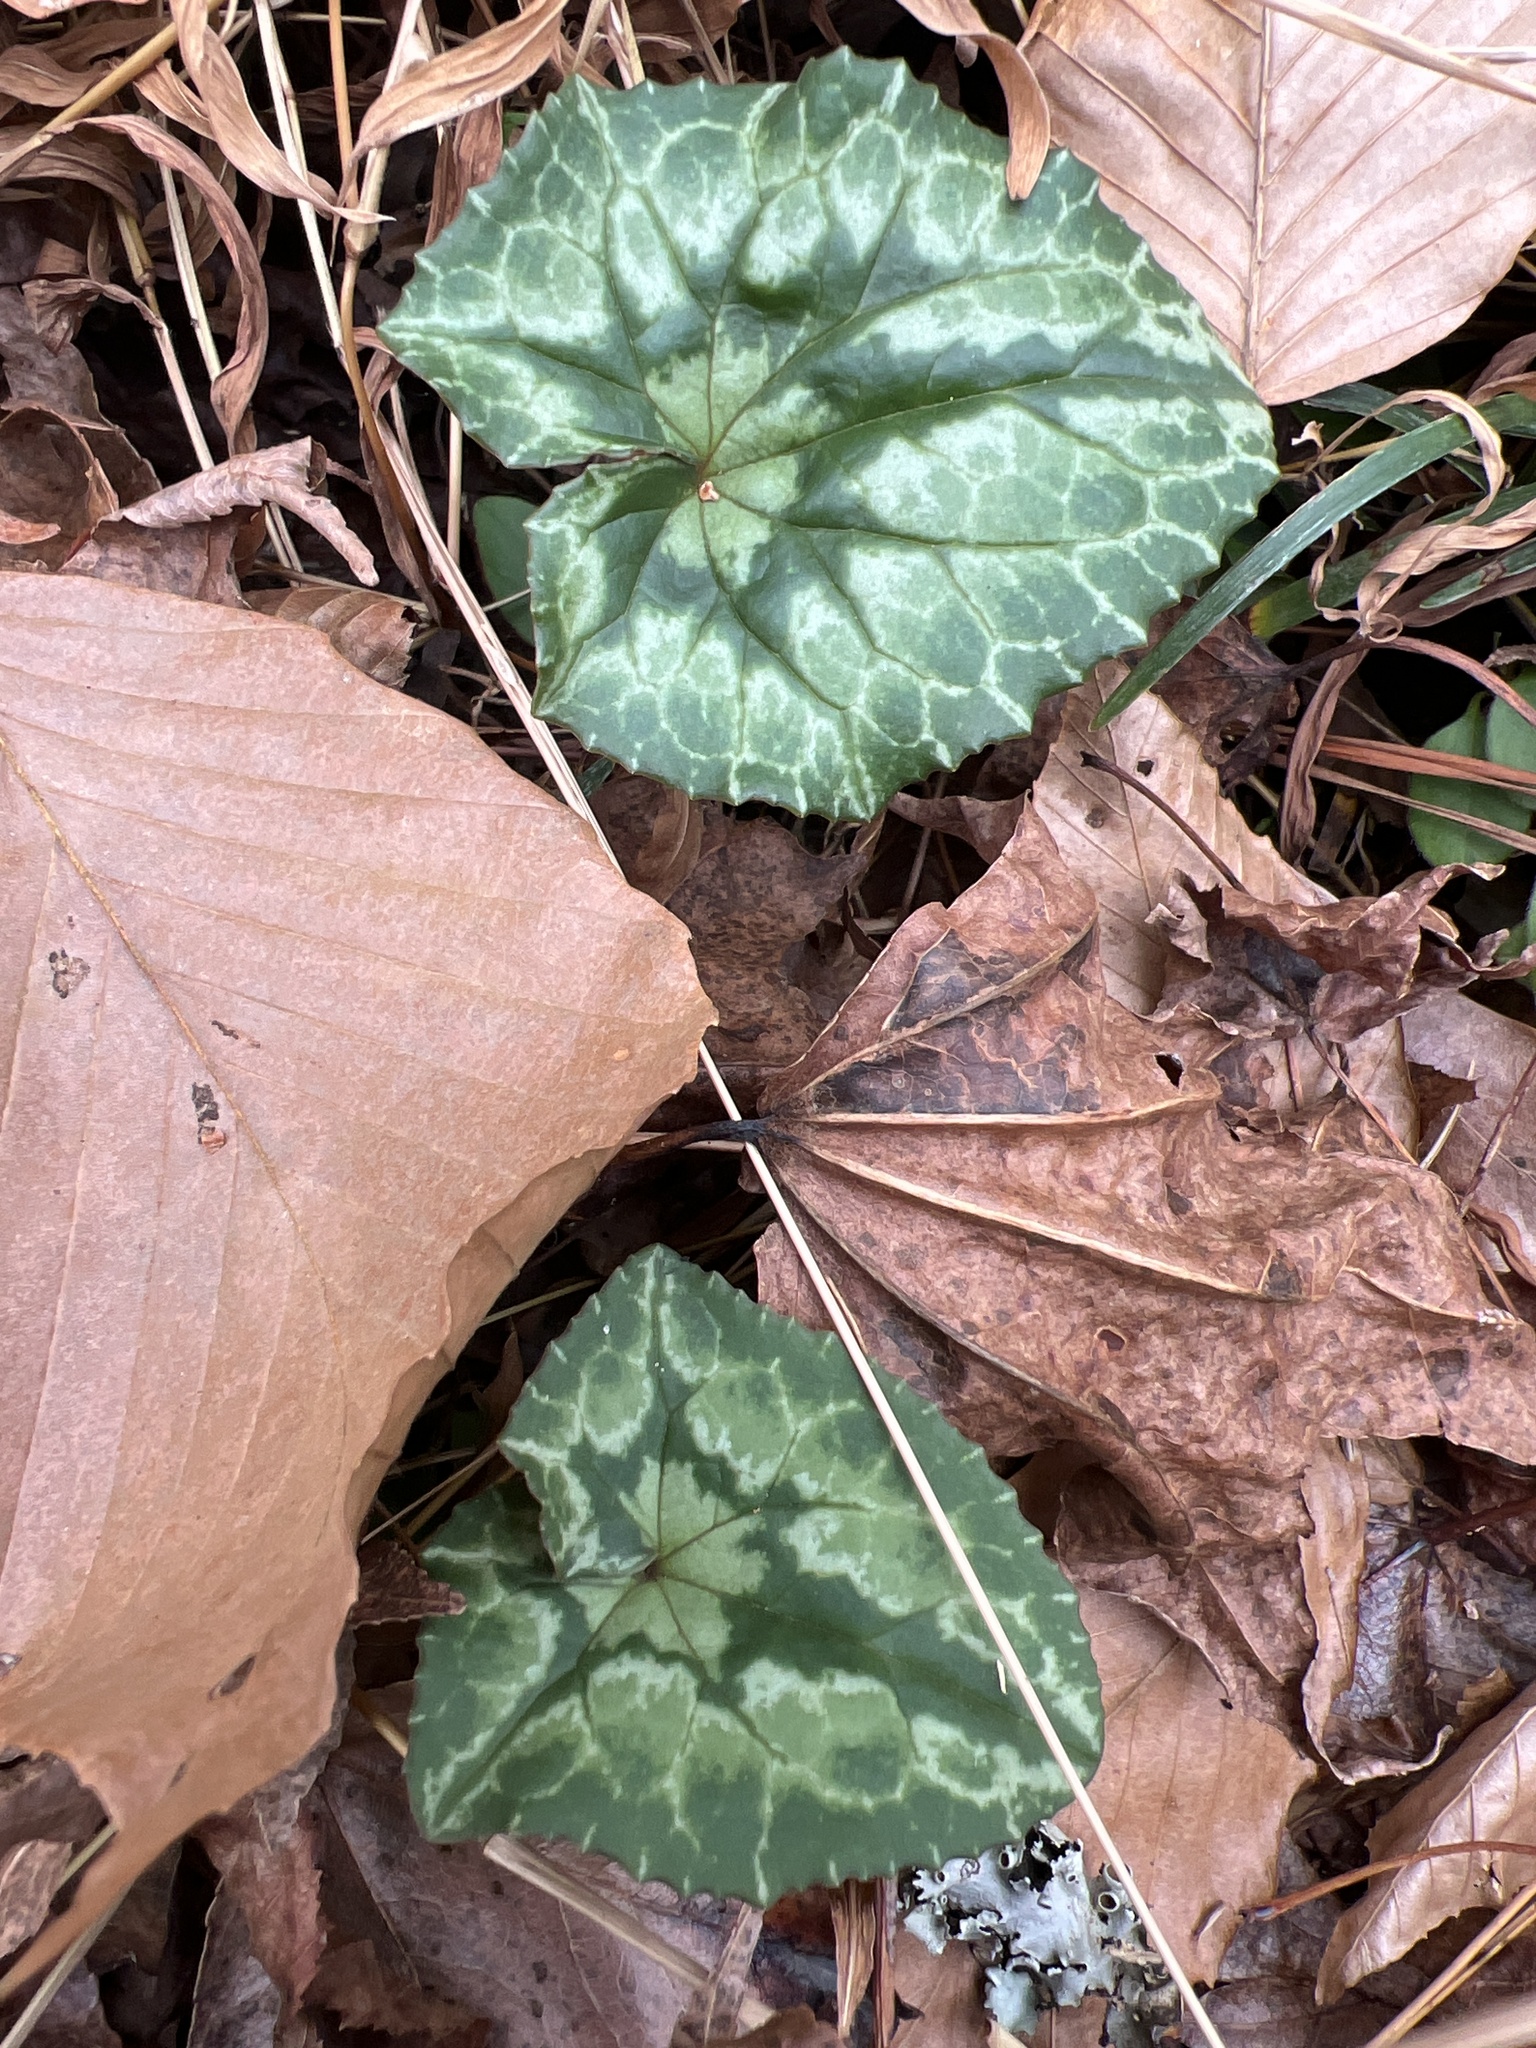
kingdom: Plantae
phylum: Tracheophyta
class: Magnoliopsida
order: Ericales
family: Primulaceae
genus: Cyclamen
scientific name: Cyclamen hederifolium
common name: Sowbread
